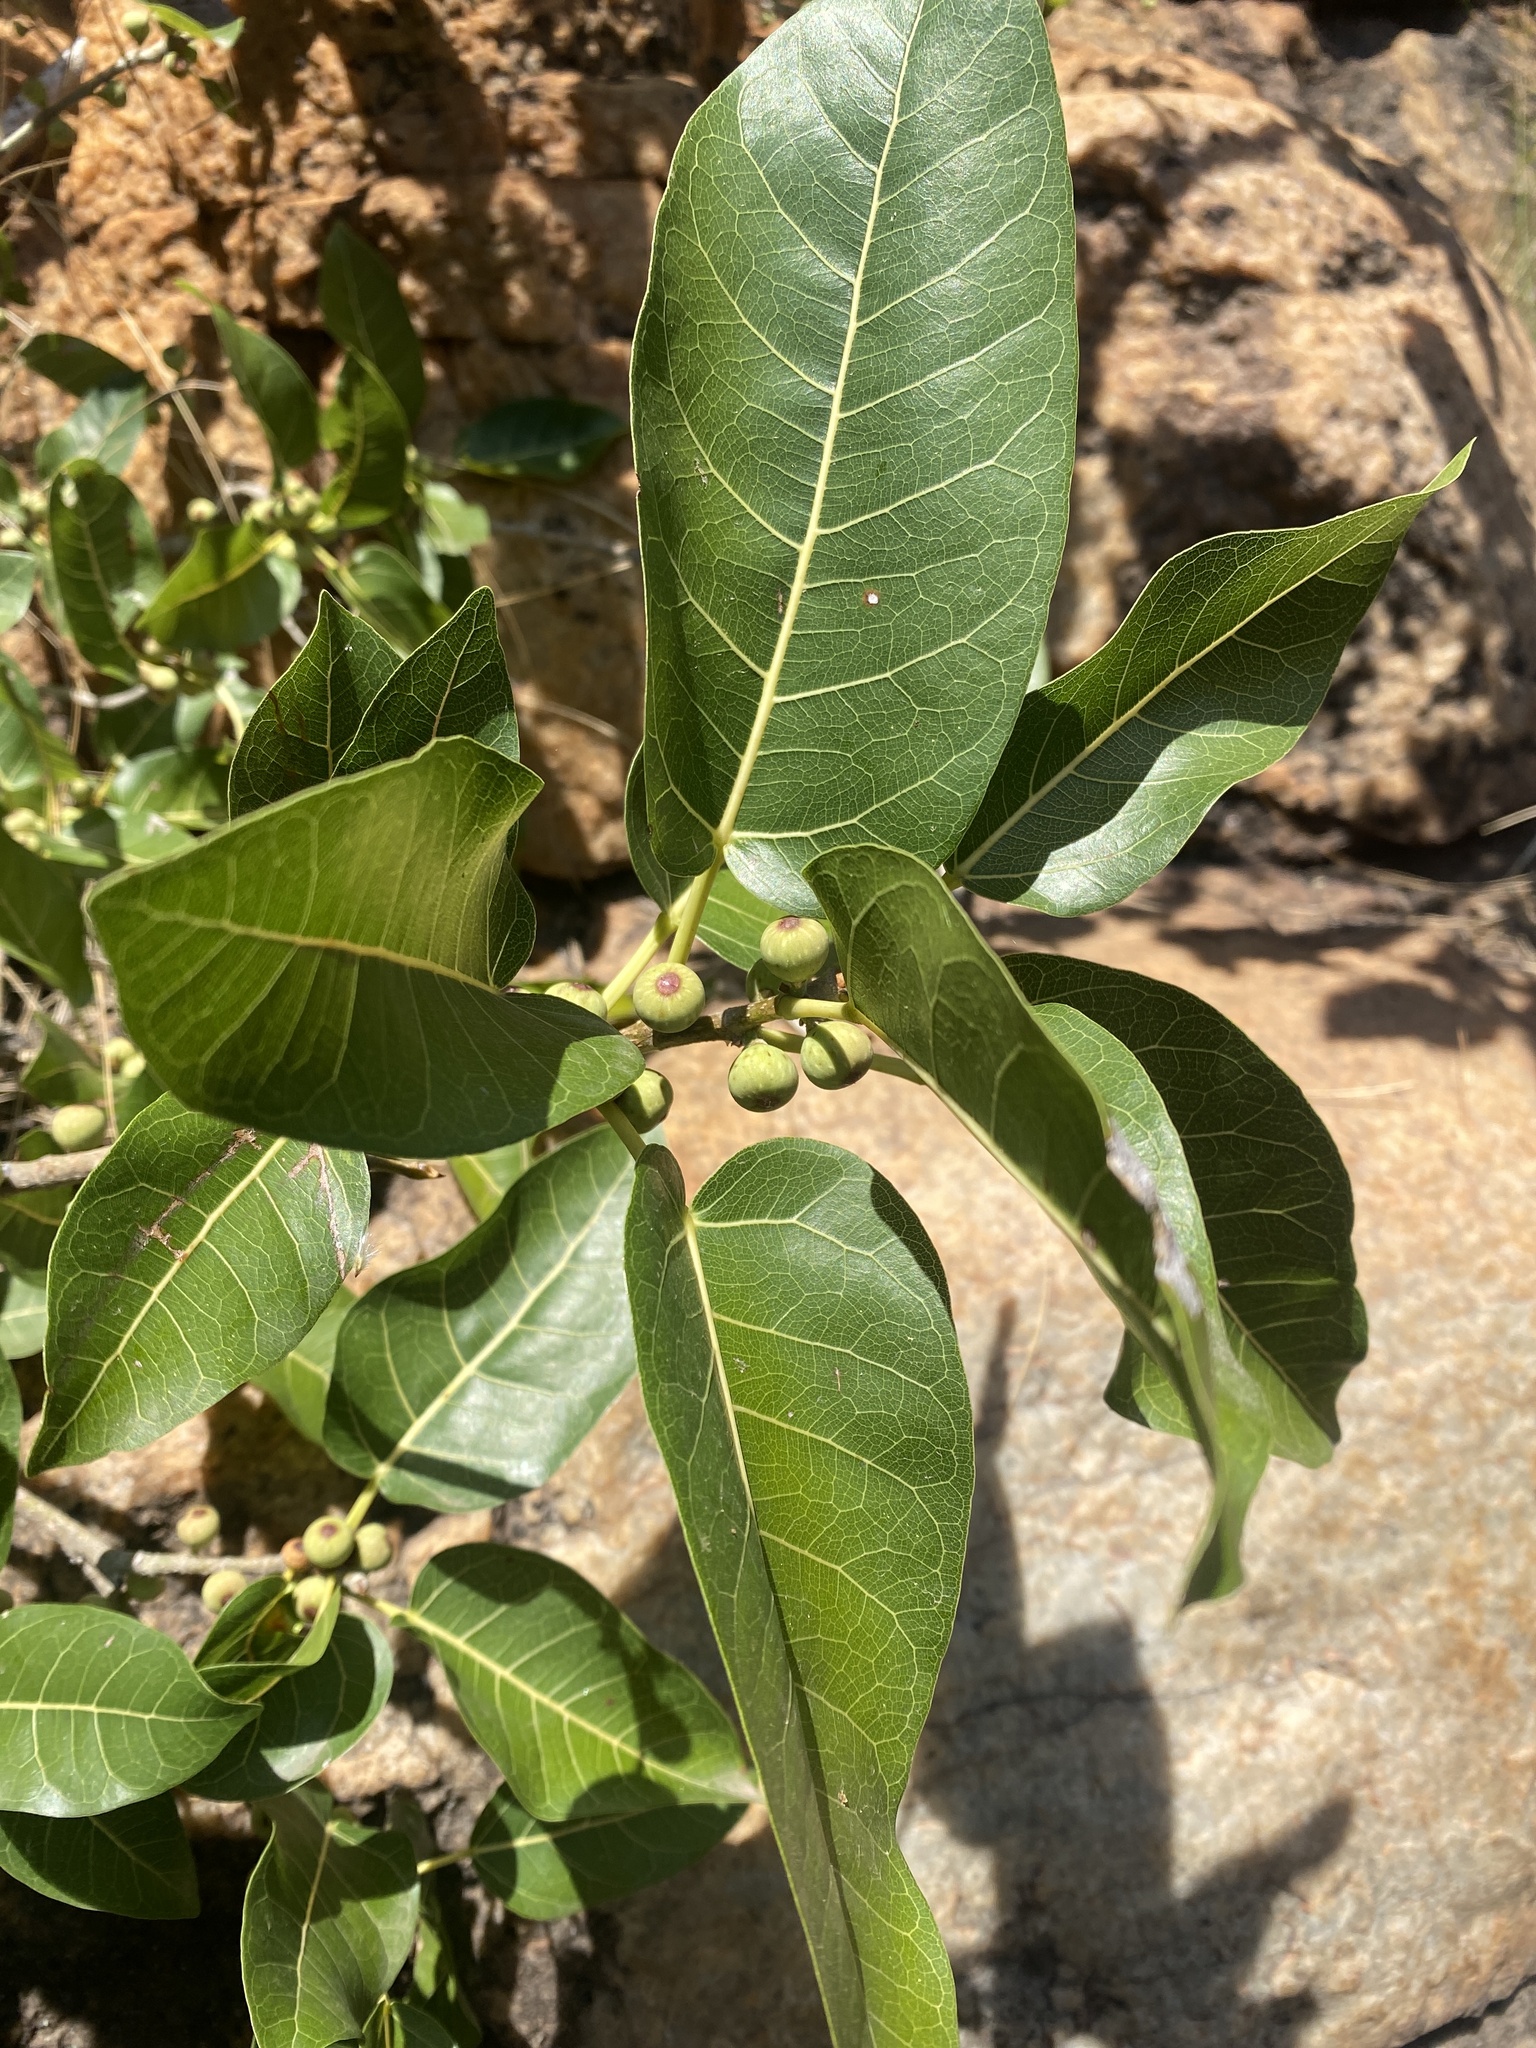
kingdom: Plantae
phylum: Tracheophyta
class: Magnoliopsida
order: Rosales
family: Moraceae
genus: Ficus
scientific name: Ficus ingens
